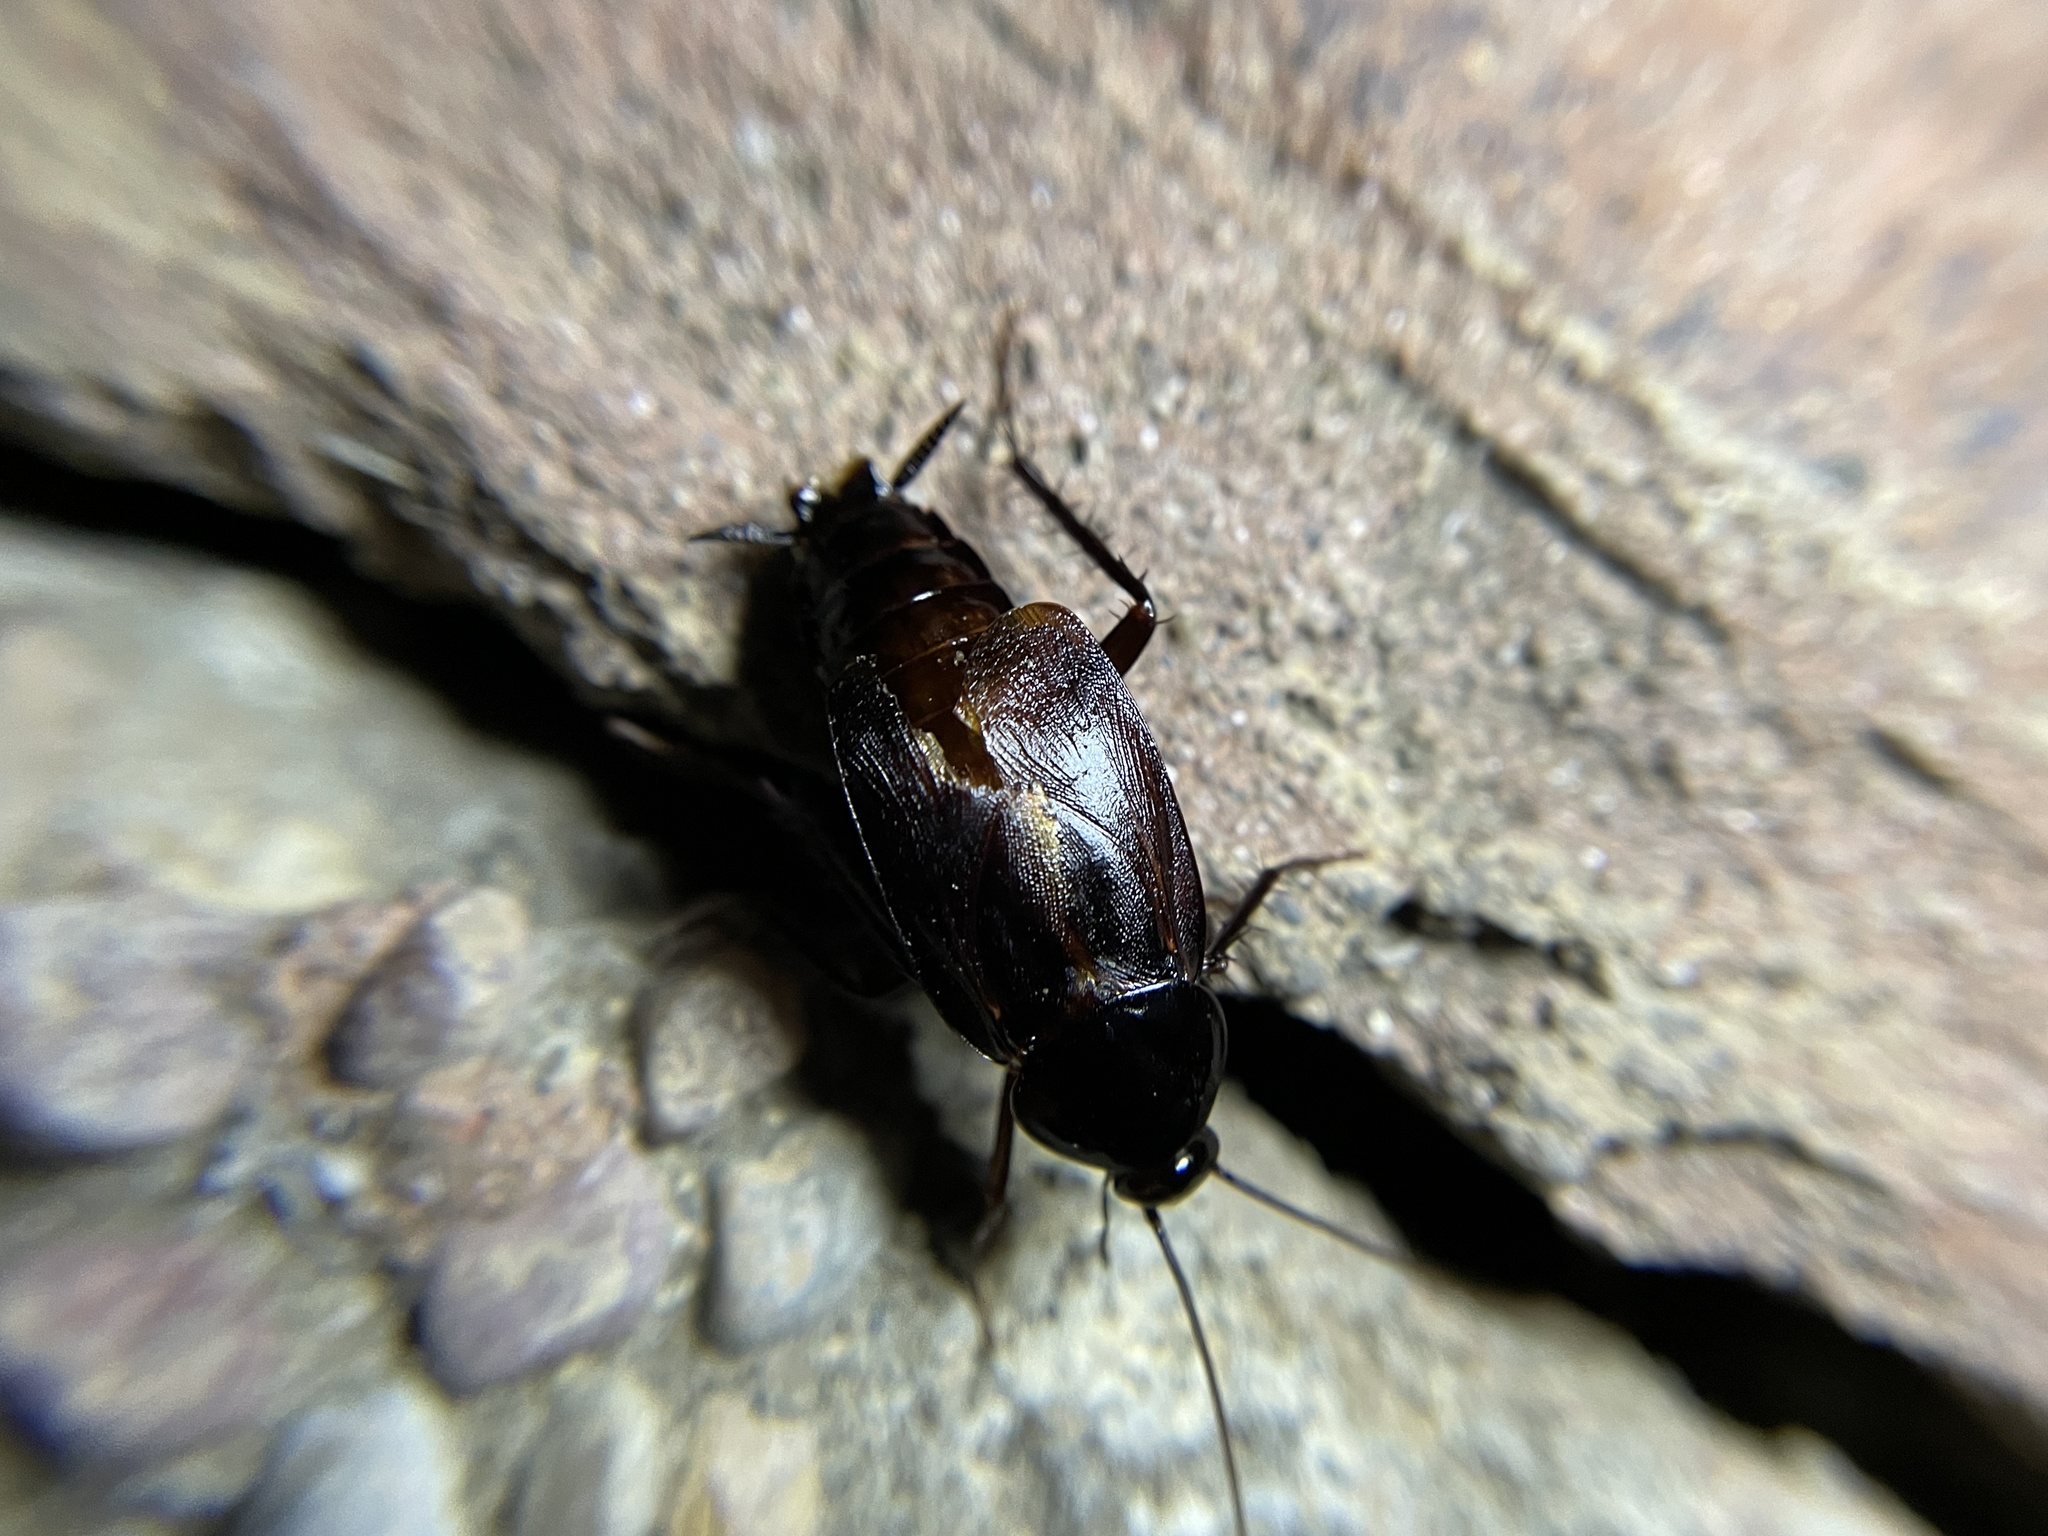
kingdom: Animalia
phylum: Arthropoda
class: Insecta
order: Blattodea
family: Blattidae
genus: Blatta
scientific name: Blatta orientalis
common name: Oriental cockroach
